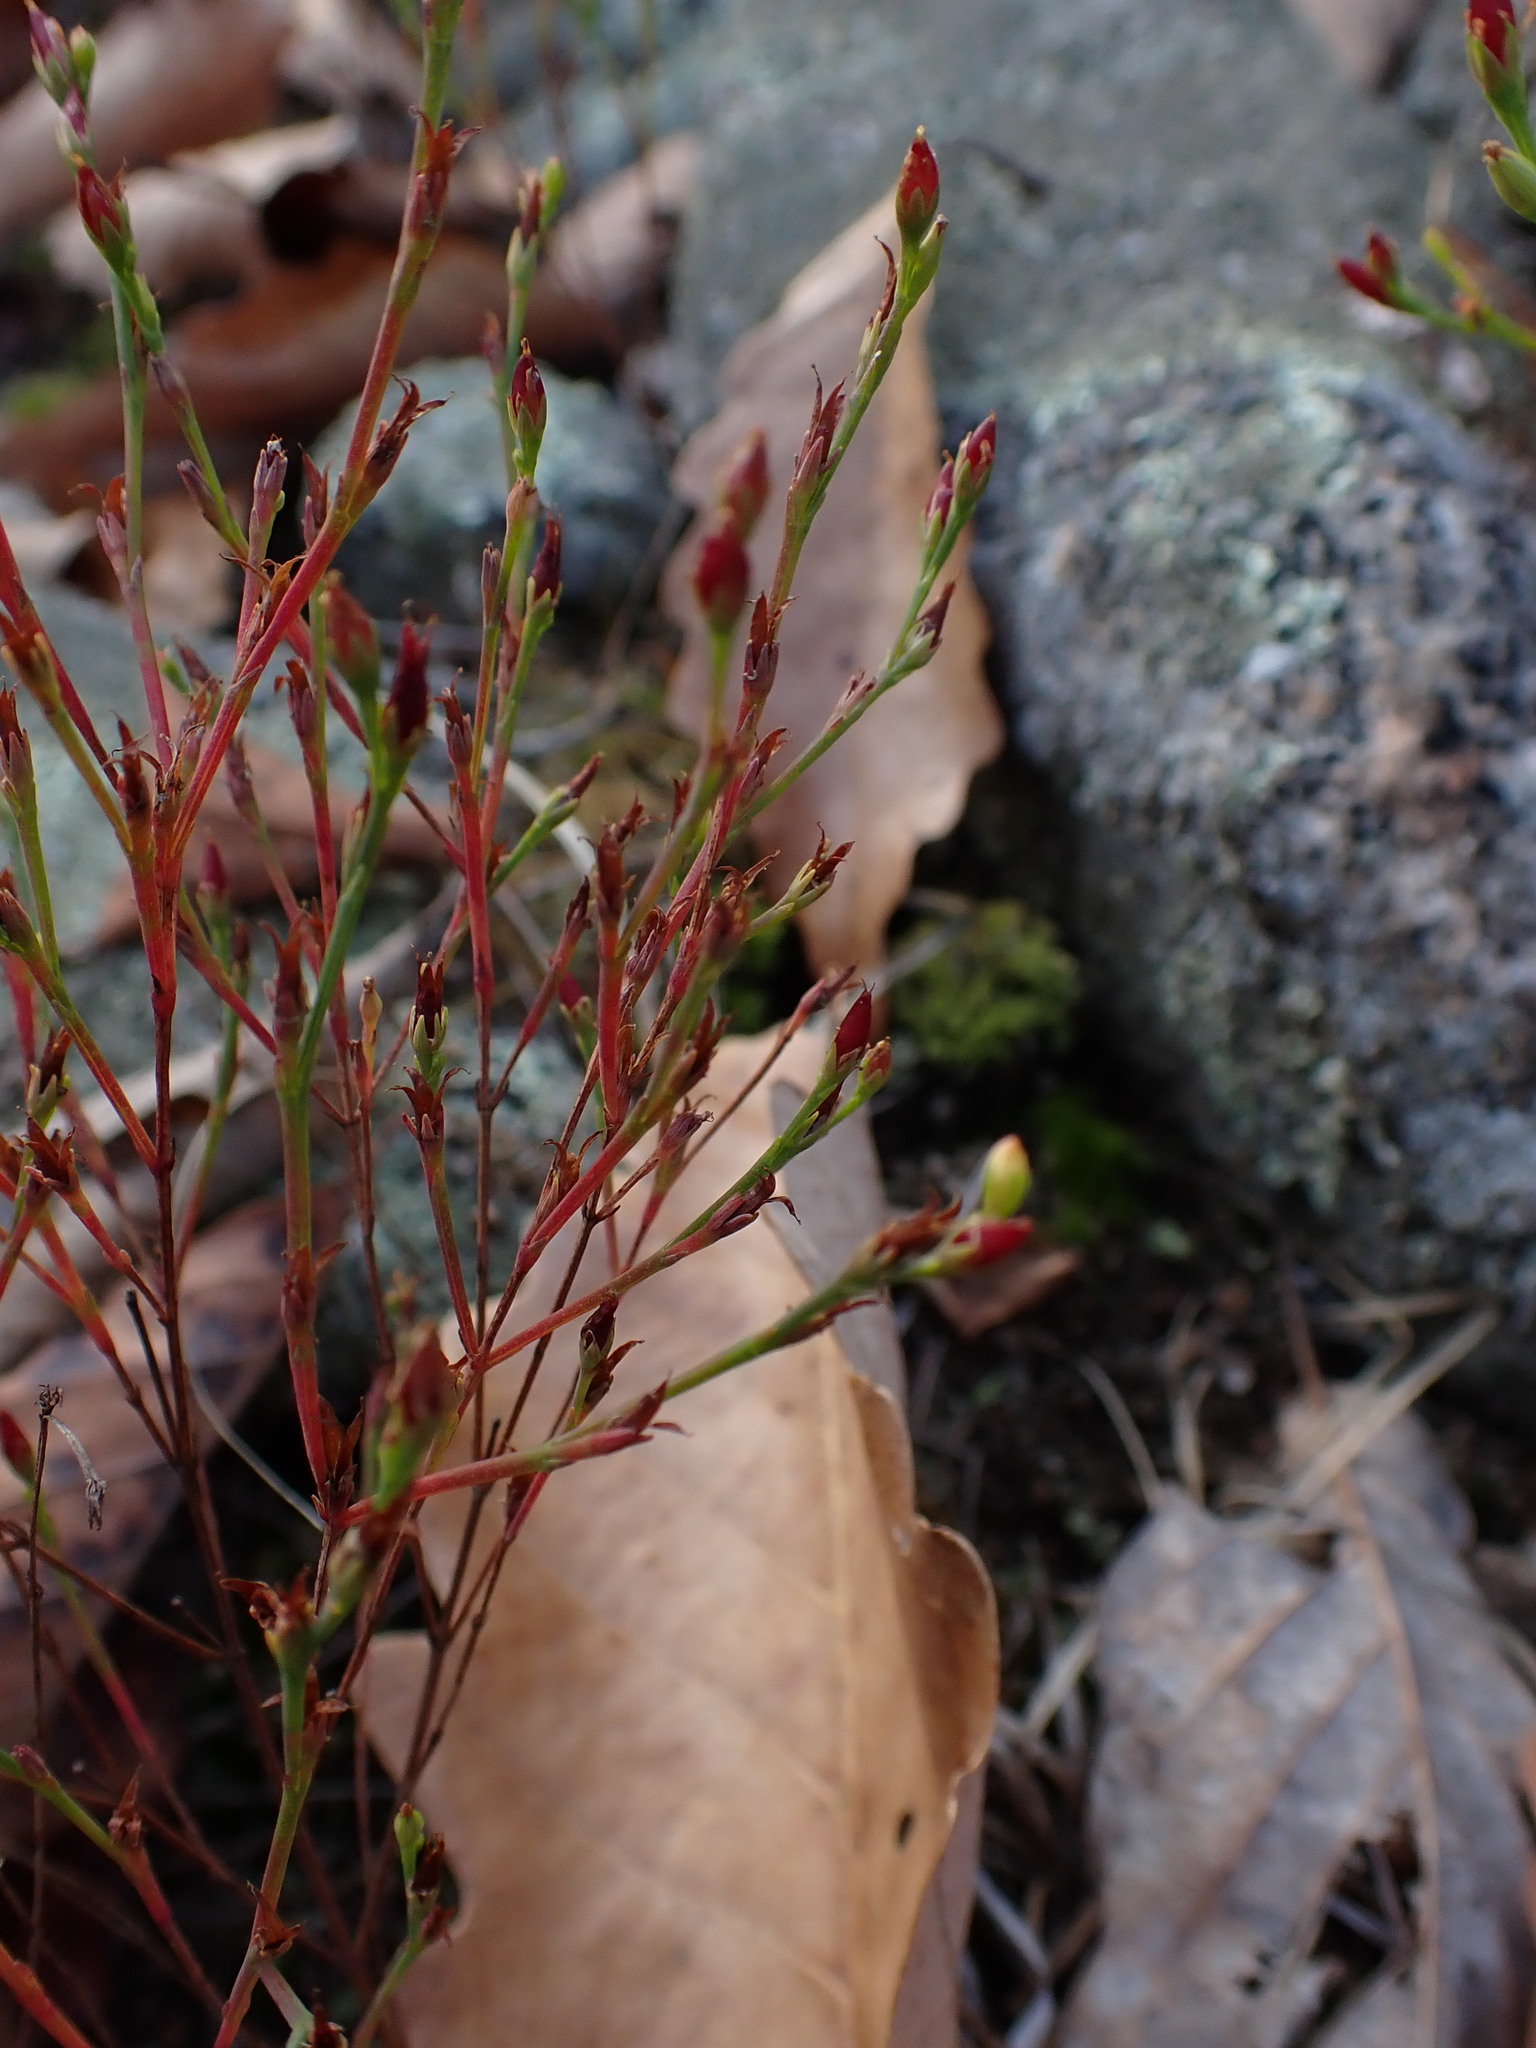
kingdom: Plantae
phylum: Tracheophyta
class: Magnoliopsida
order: Malpighiales
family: Hypericaceae
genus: Hypericum
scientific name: Hypericum gentianoides
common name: Gentian-leaved st. john's-wort
